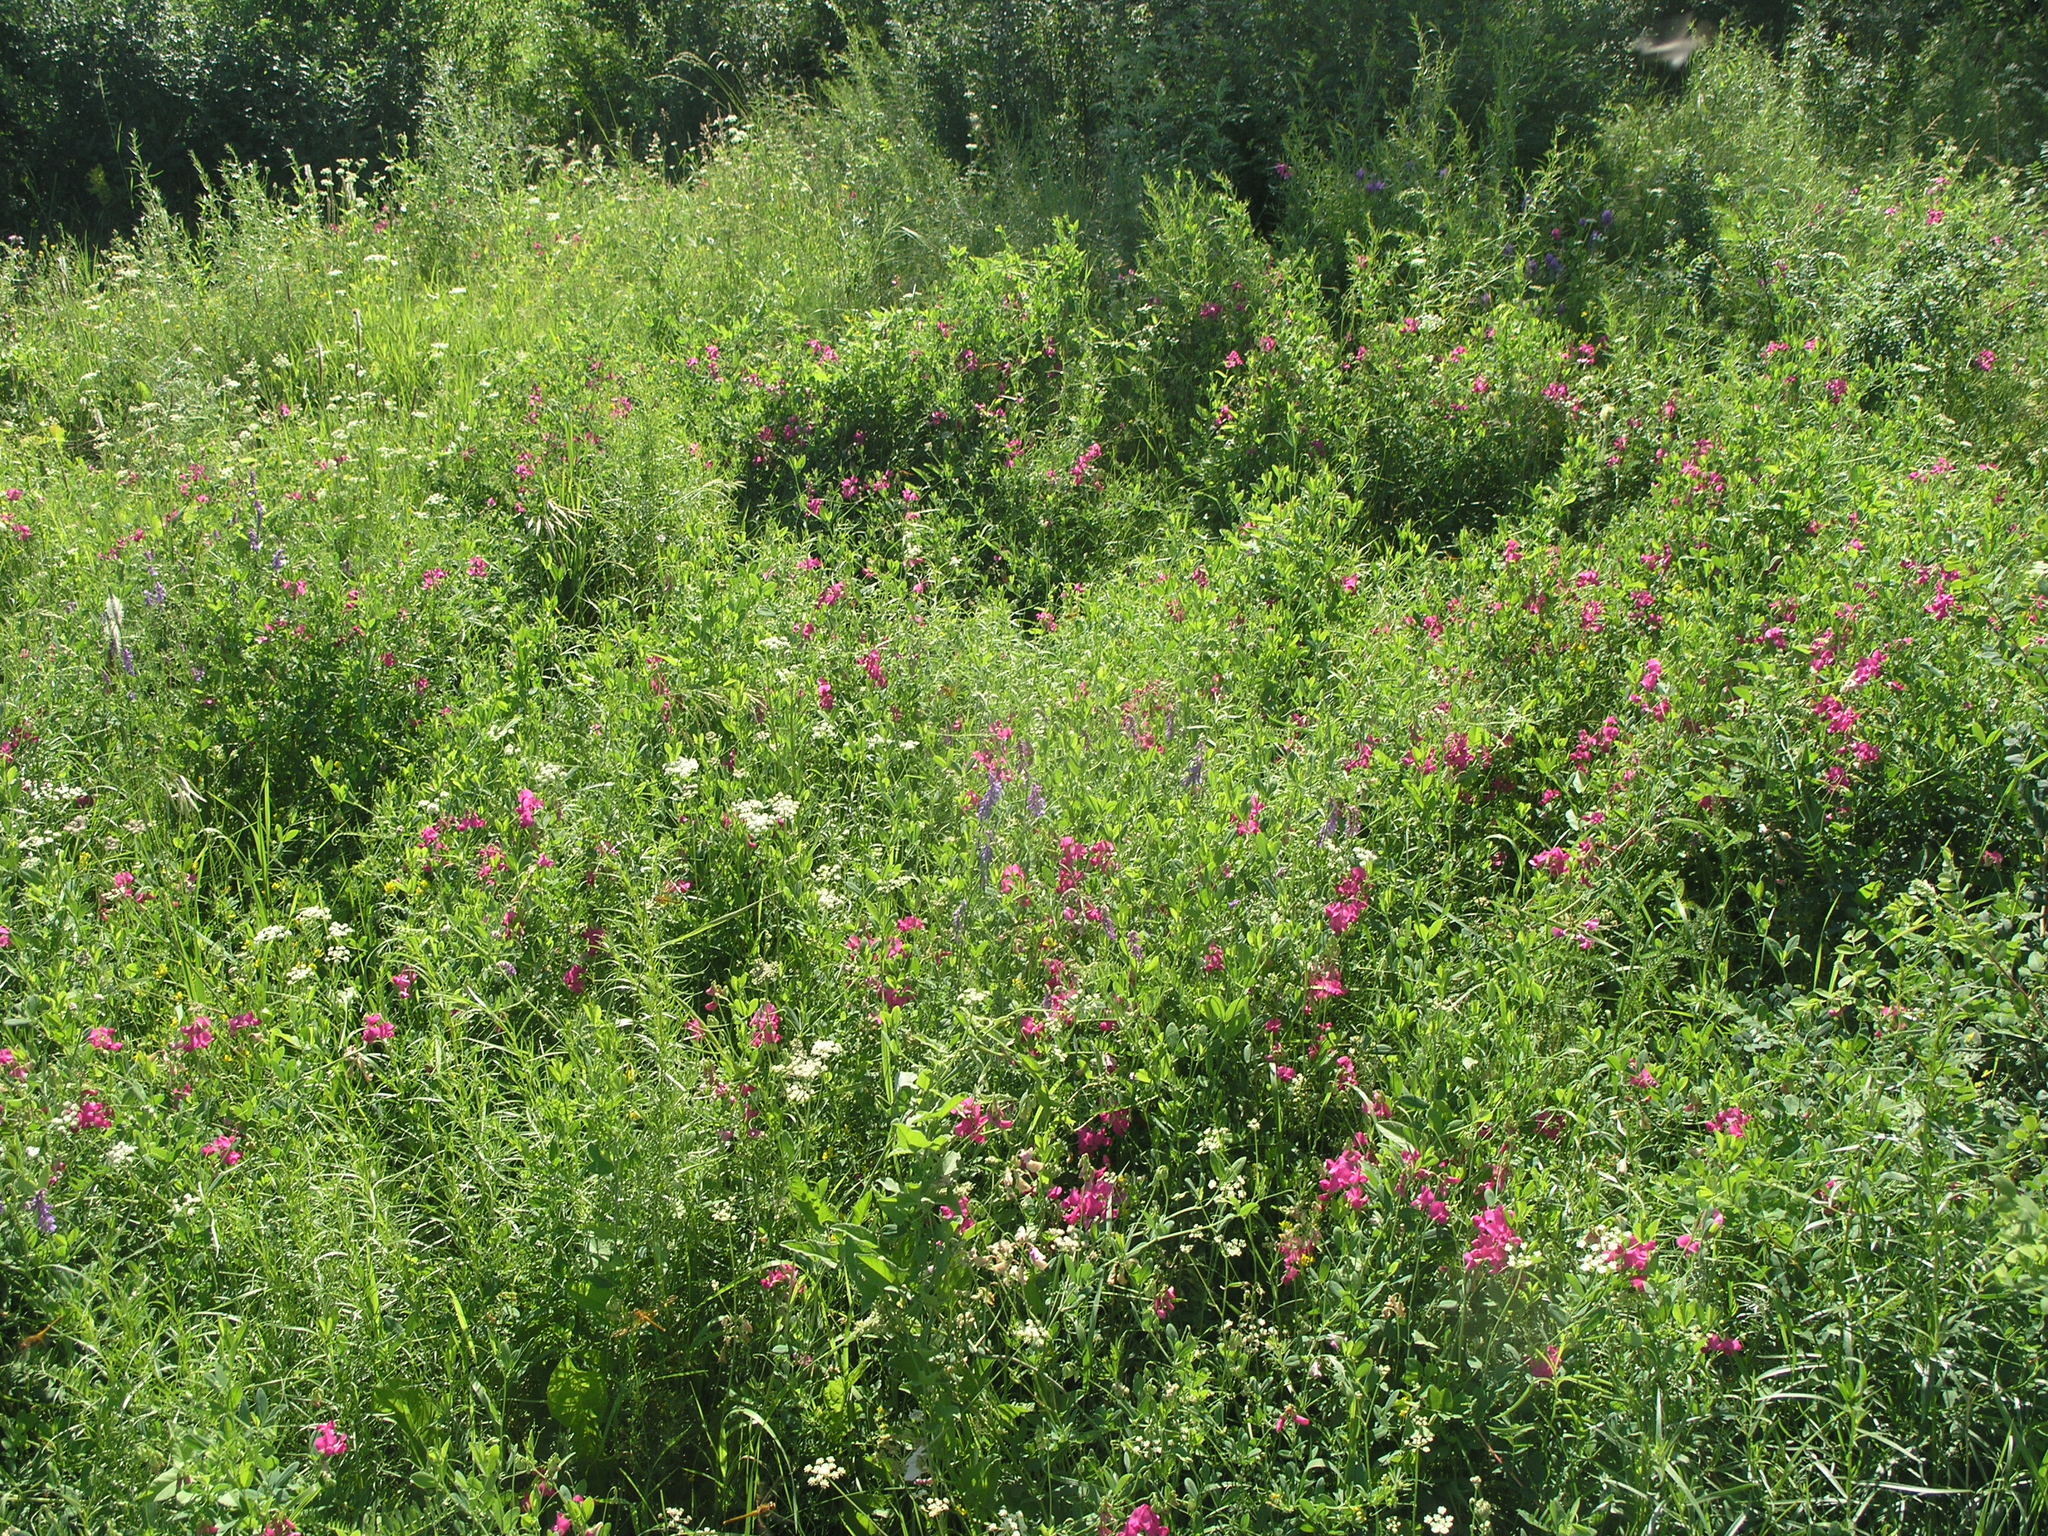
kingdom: Plantae
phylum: Tracheophyta
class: Magnoliopsida
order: Fabales
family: Fabaceae
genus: Lathyrus
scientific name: Lathyrus tuberosus
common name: Tuberous pea
